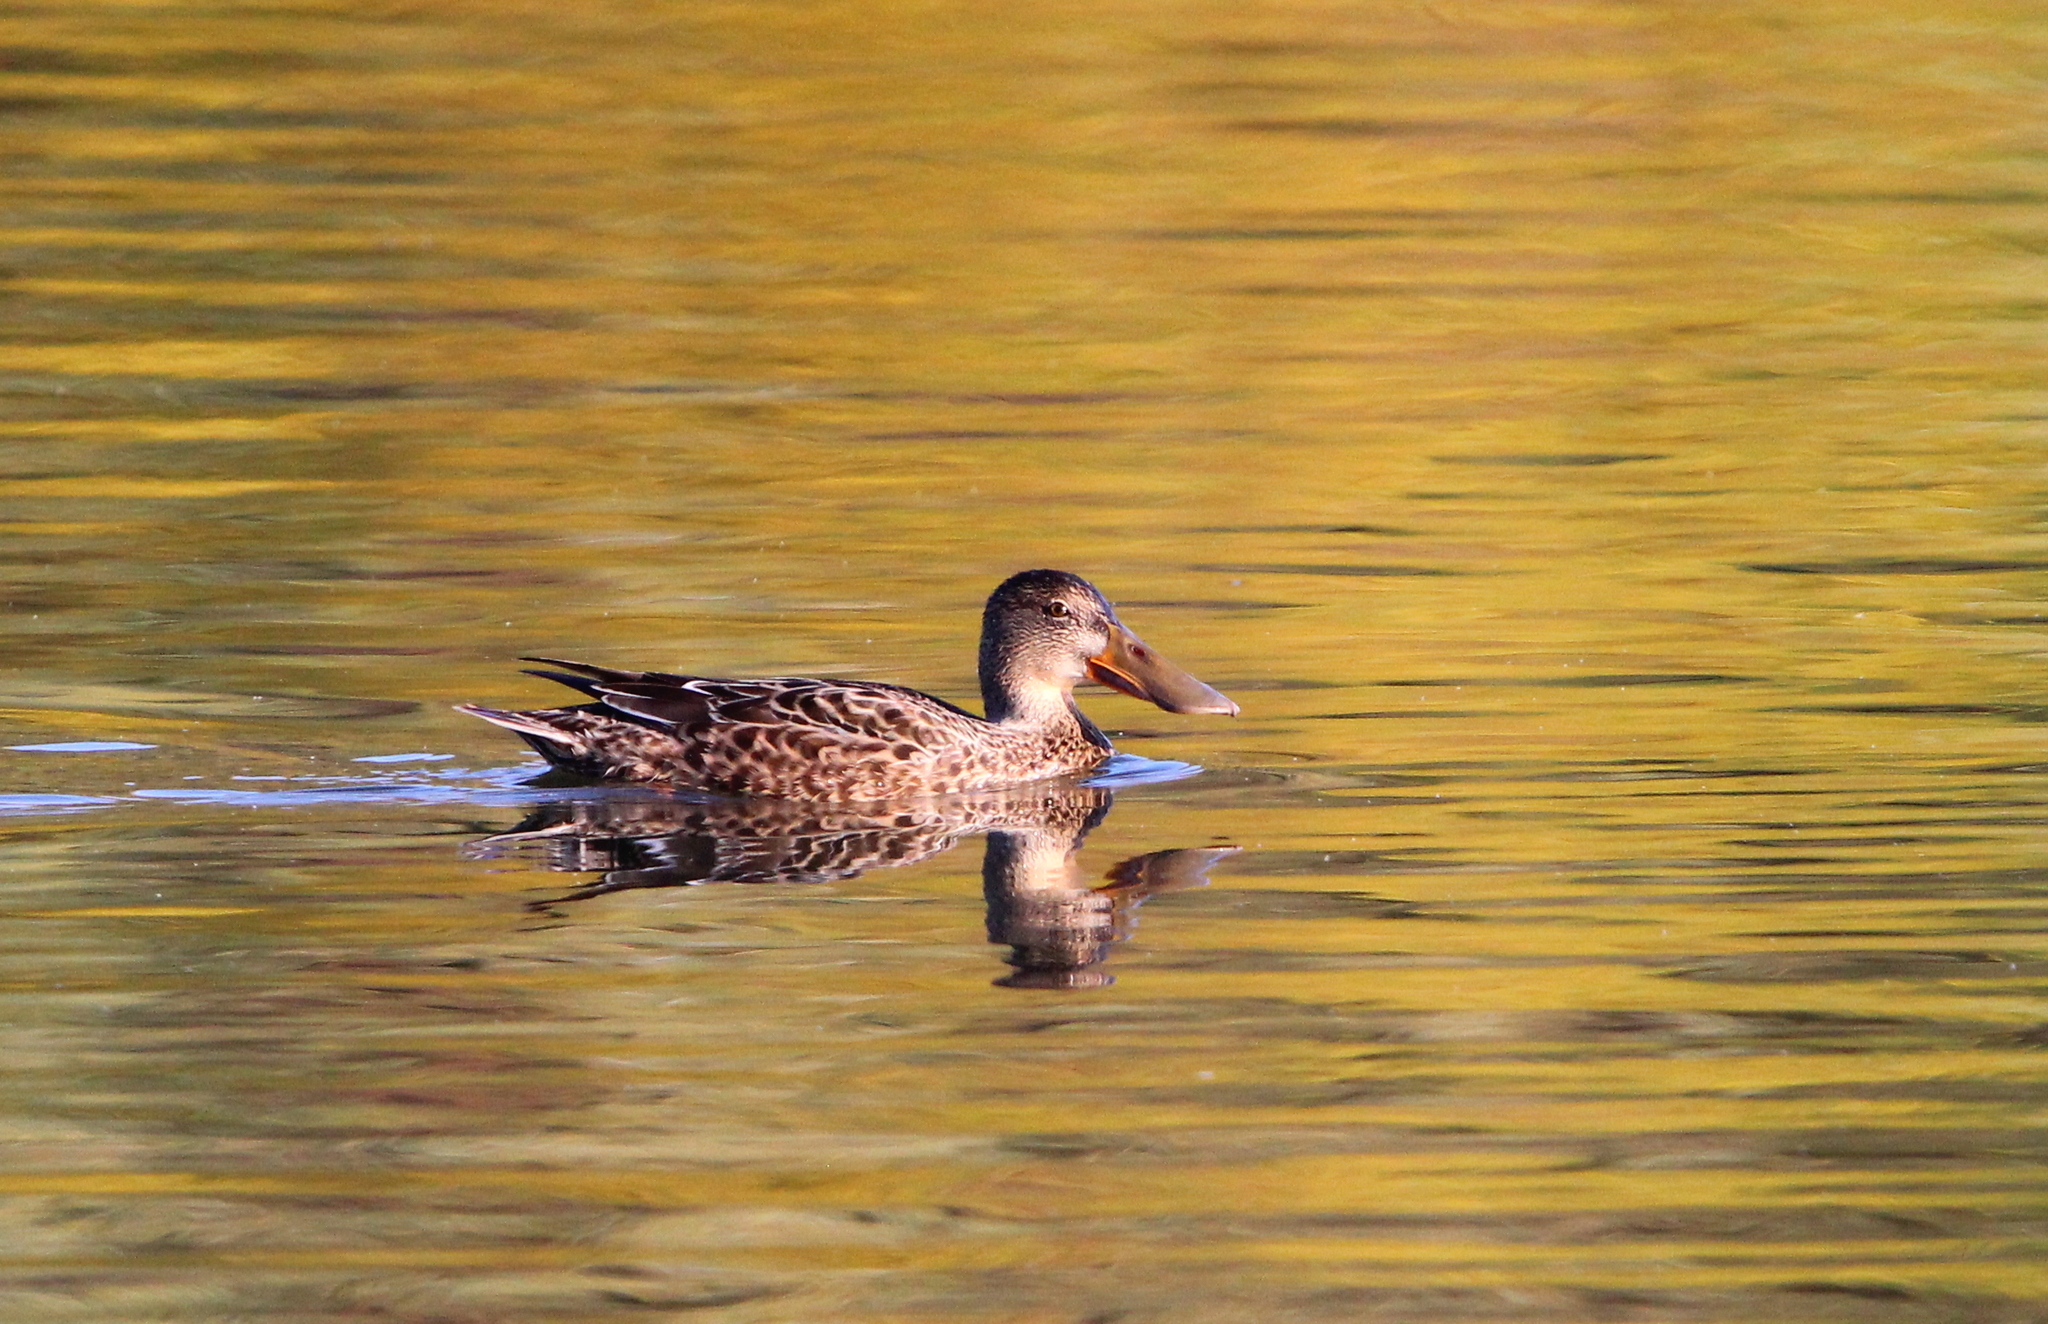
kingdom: Animalia
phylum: Chordata
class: Aves
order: Anseriformes
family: Anatidae
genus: Spatula
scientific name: Spatula clypeata
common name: Northern shoveler
